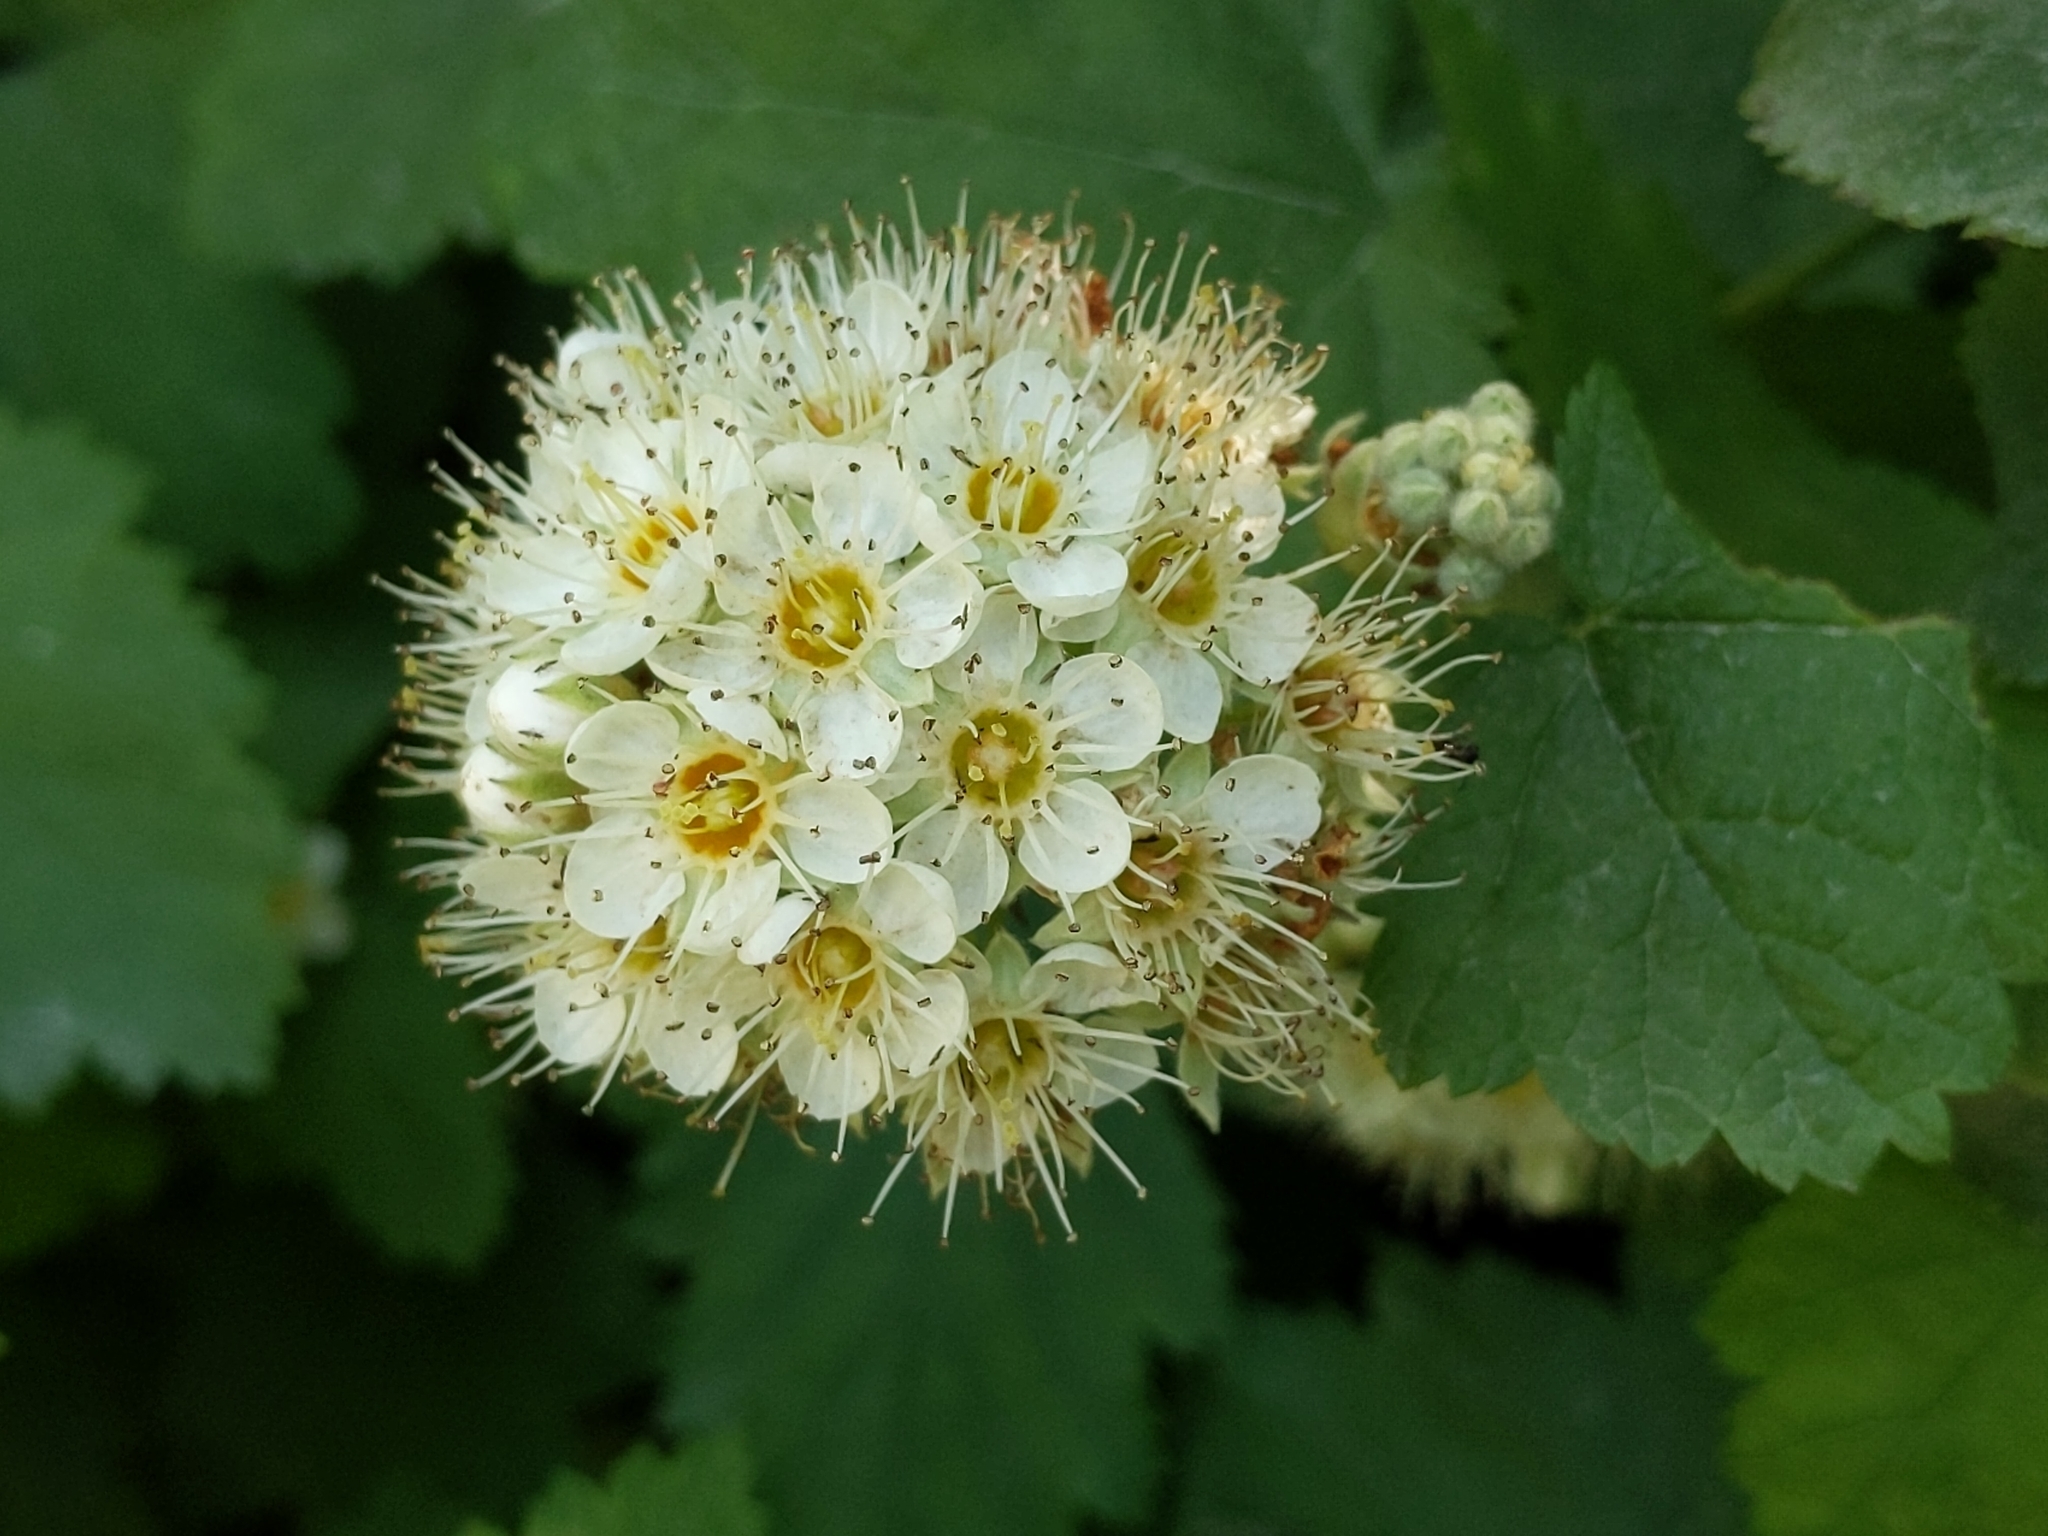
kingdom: Plantae
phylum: Tracheophyta
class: Magnoliopsida
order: Rosales
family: Rosaceae
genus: Physocarpus
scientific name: Physocarpus capitatus
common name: Pacific ninebark
